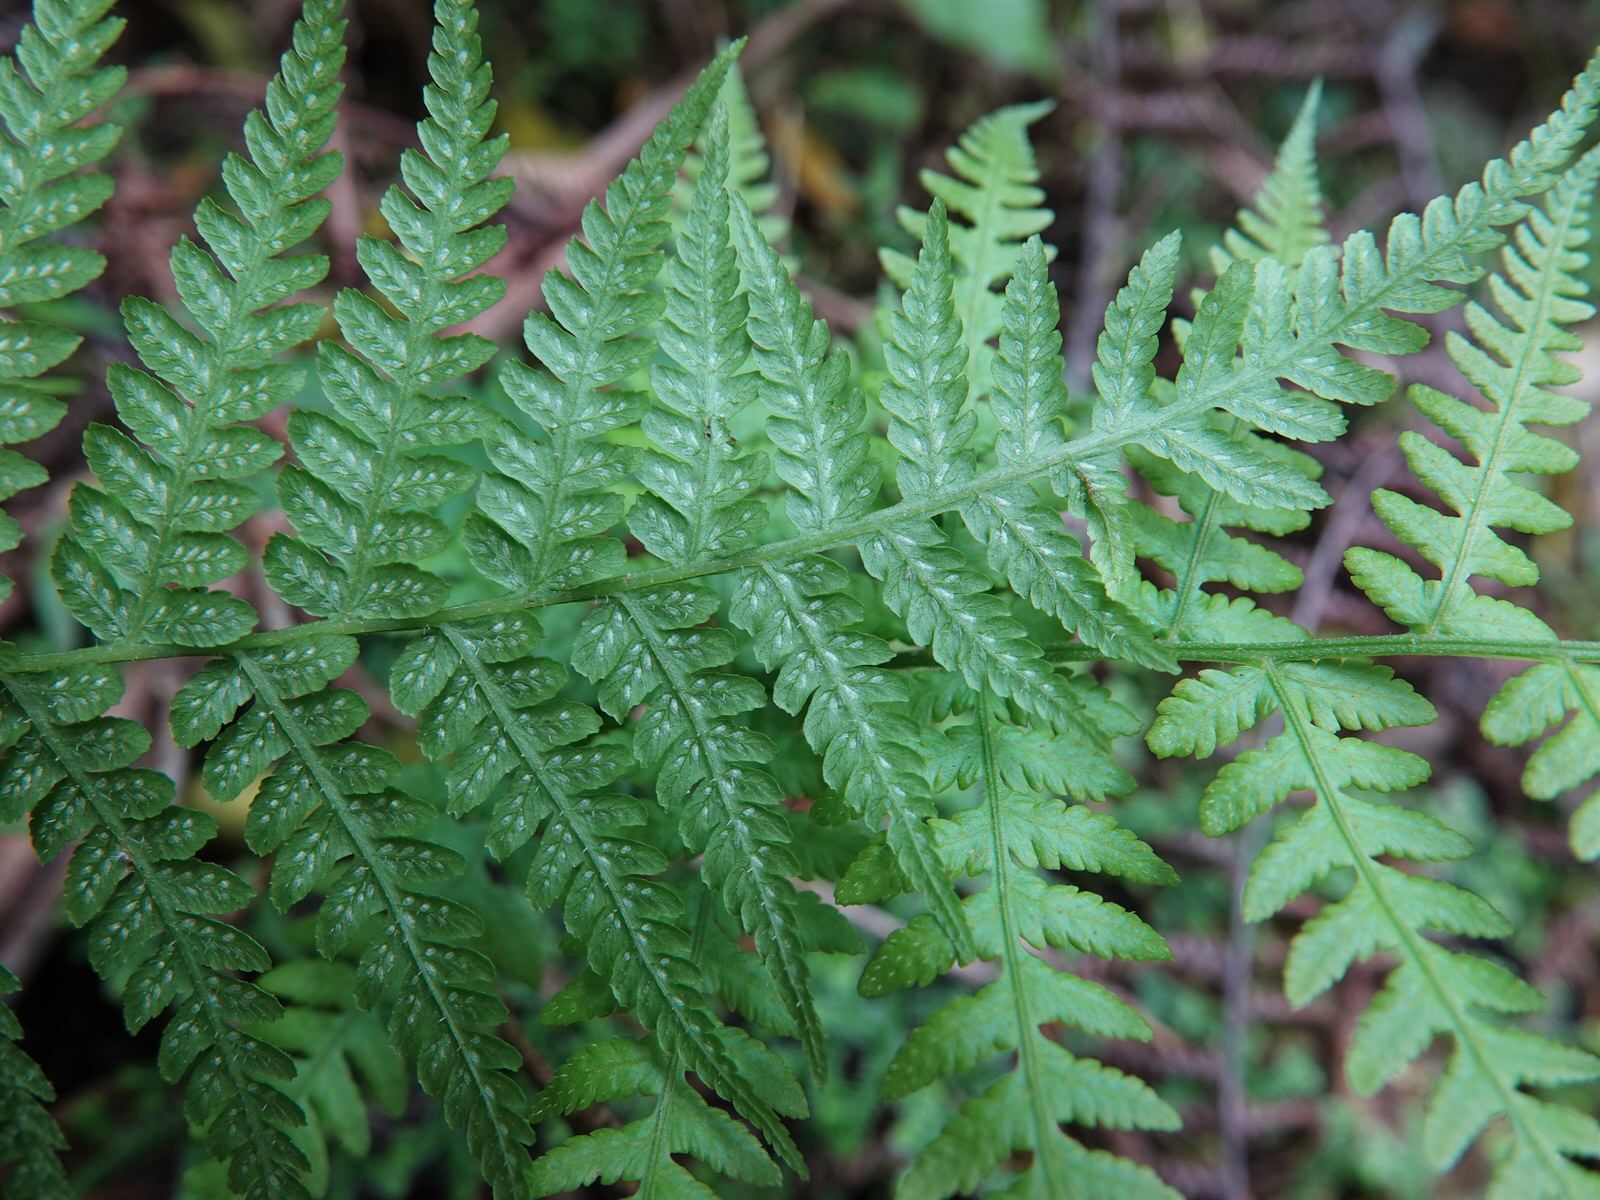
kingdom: Plantae
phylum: Tracheophyta
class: Polypodiopsida
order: Polypodiales
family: Athyriaceae
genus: Diplazium
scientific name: Diplazium congruum
